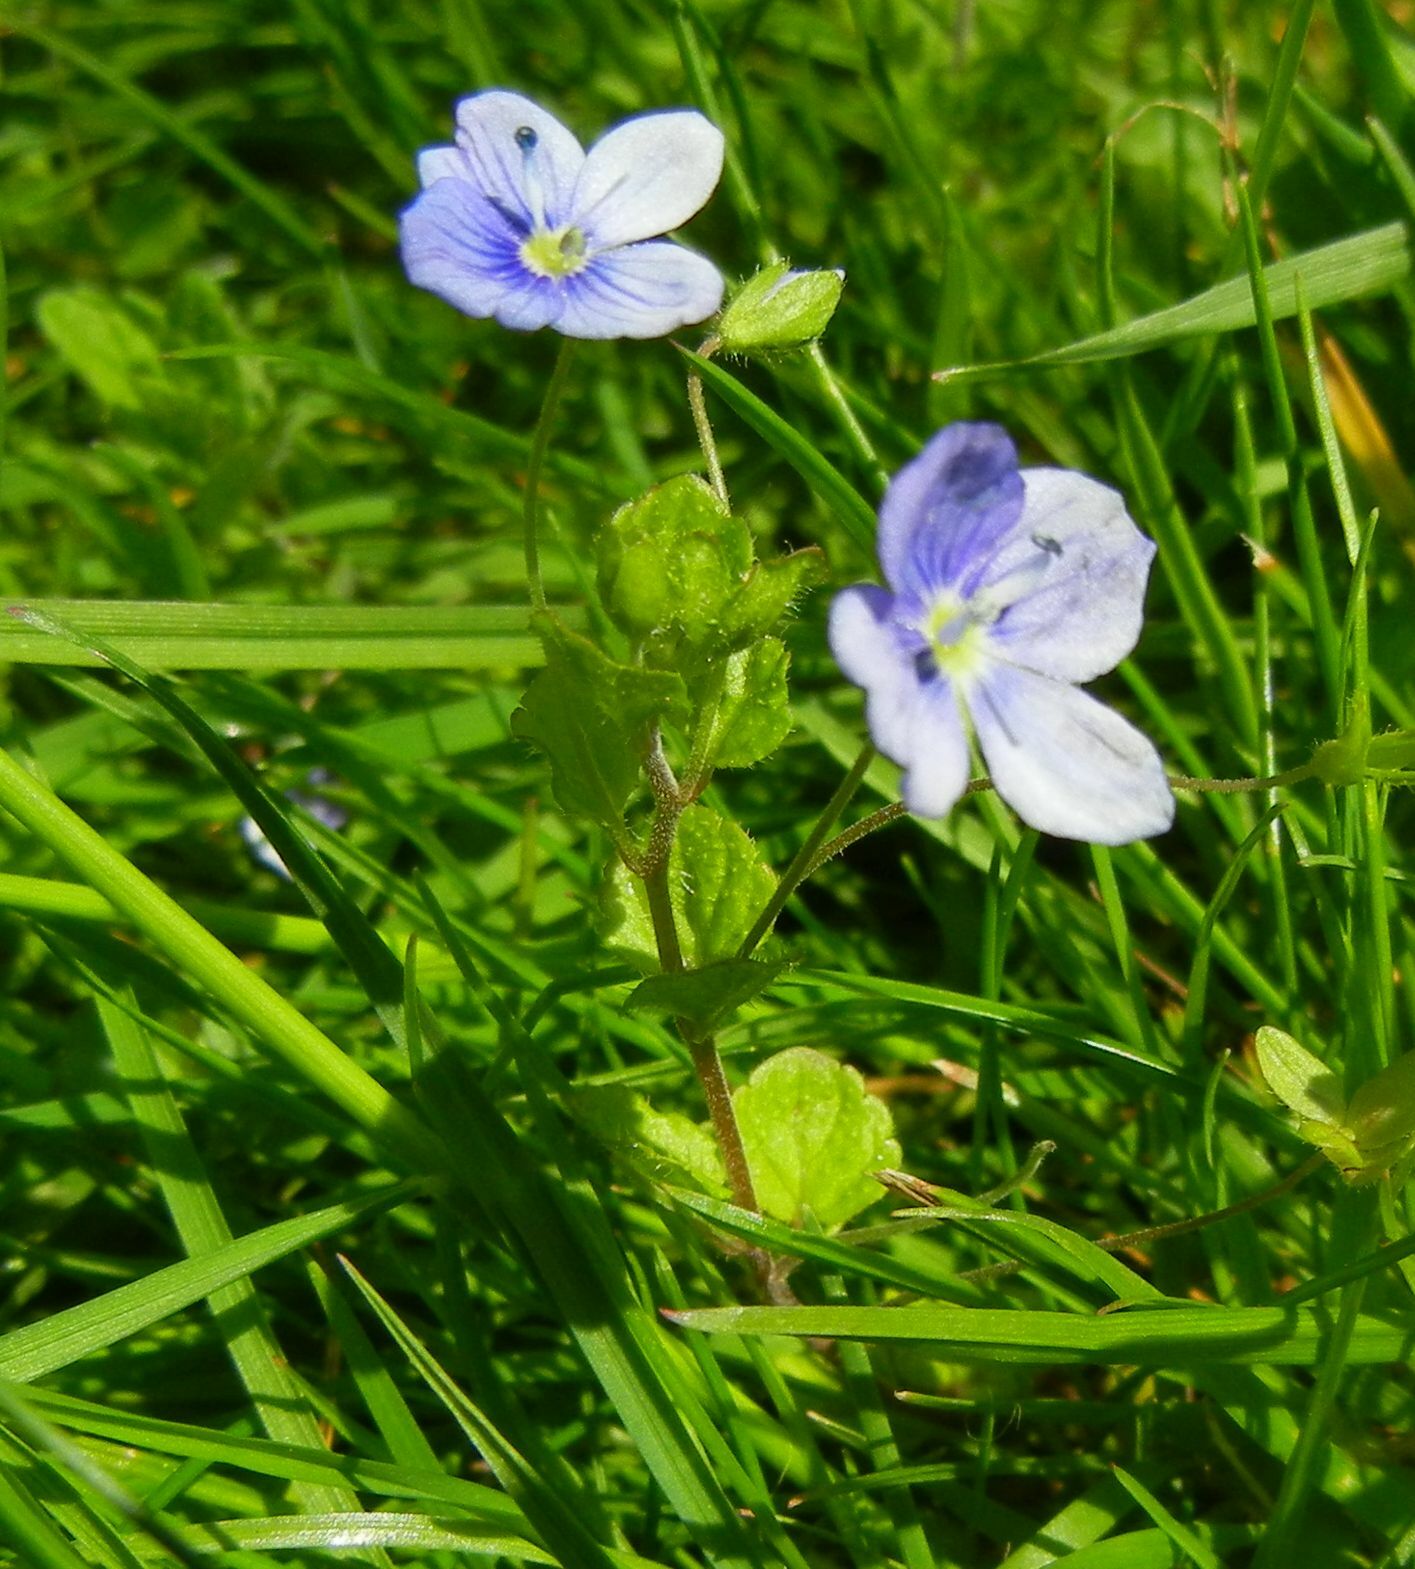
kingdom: Plantae
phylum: Tracheophyta
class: Magnoliopsida
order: Lamiales
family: Plantaginaceae
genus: Veronica
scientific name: Veronica filiformis
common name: Slender speedwell
